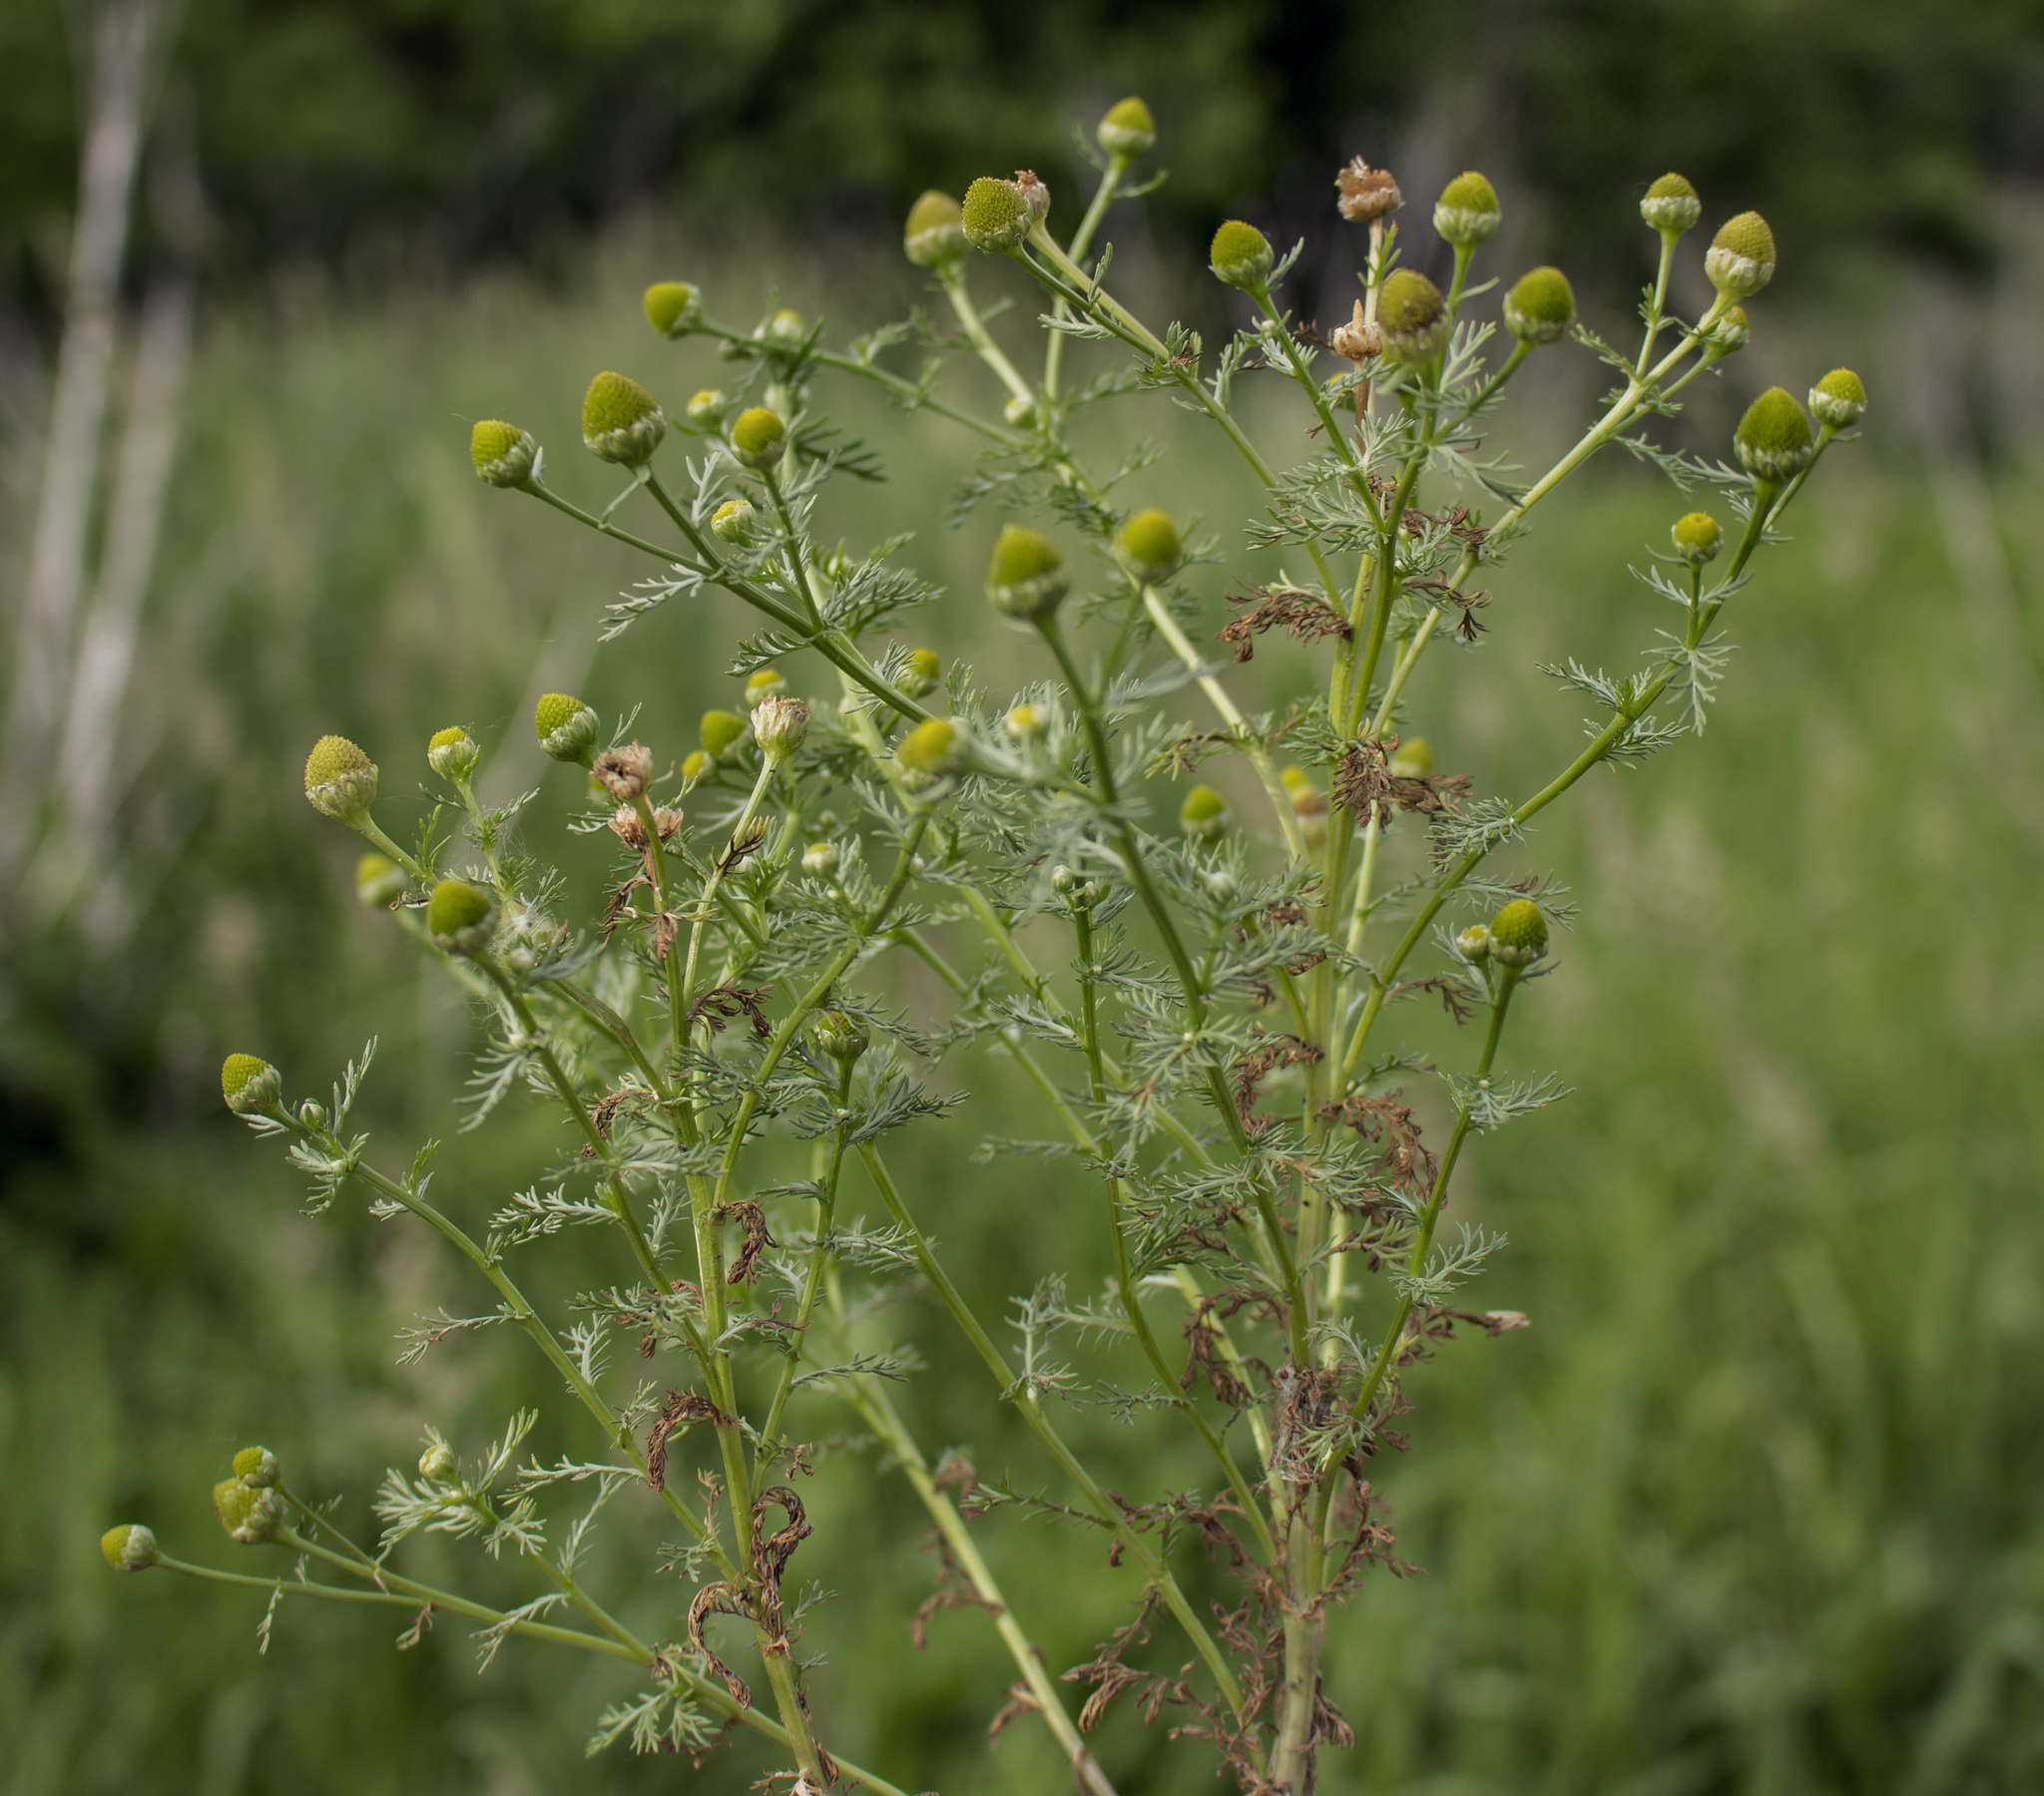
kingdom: Plantae
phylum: Tracheophyta
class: Magnoliopsida
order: Asterales
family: Asteraceae
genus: Matricaria
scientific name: Matricaria discoidea
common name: Disc mayweed
